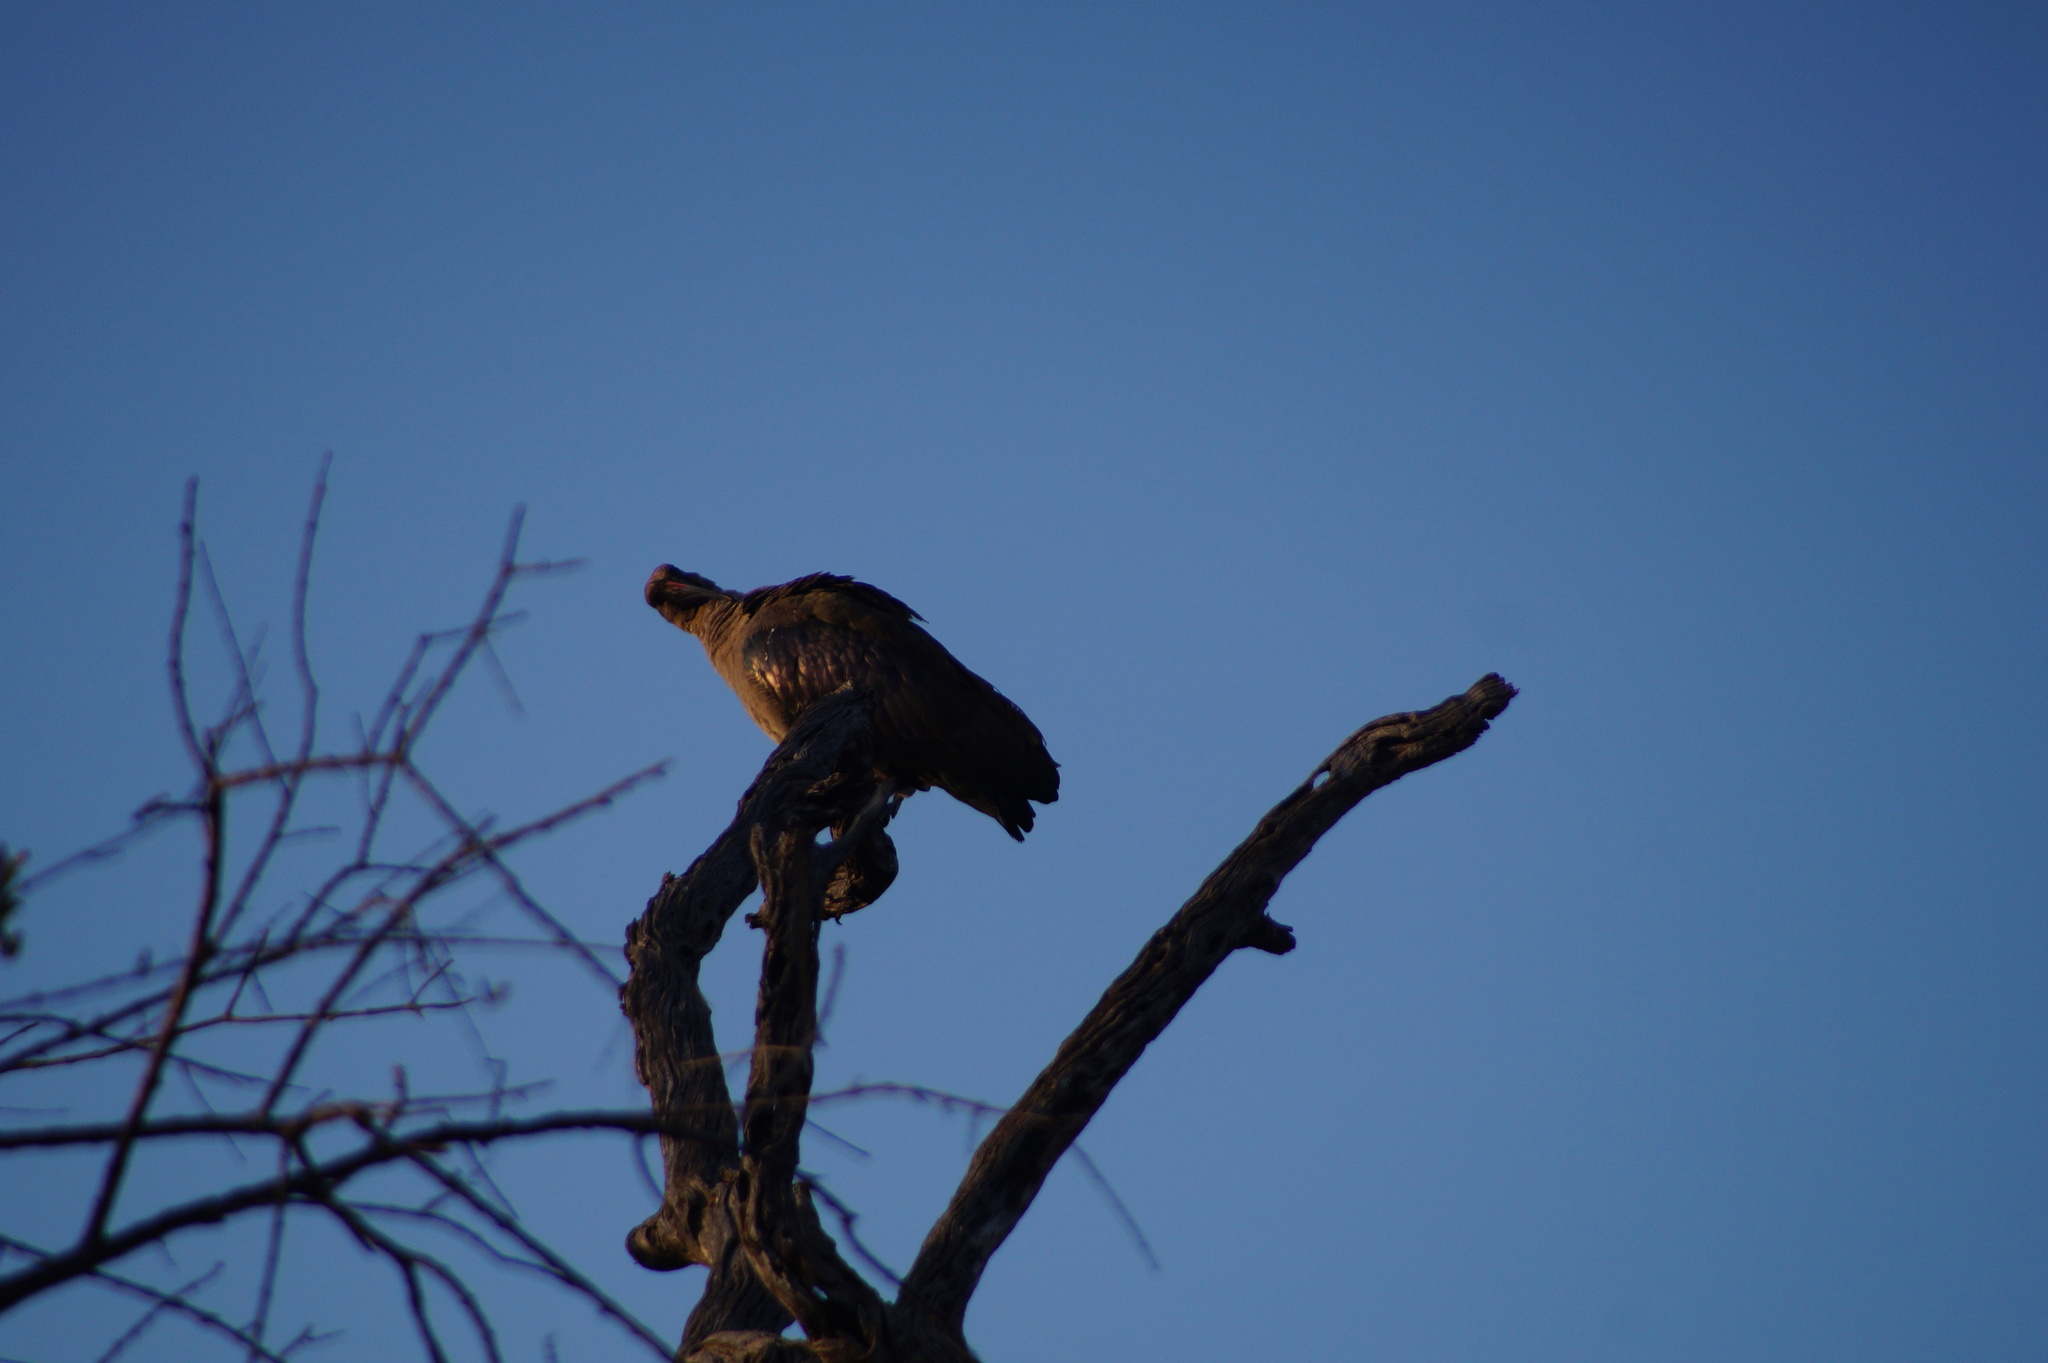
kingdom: Animalia
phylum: Chordata
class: Aves
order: Pelecaniformes
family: Threskiornithidae
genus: Bostrychia
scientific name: Bostrychia hagedash
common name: Hadada ibis
